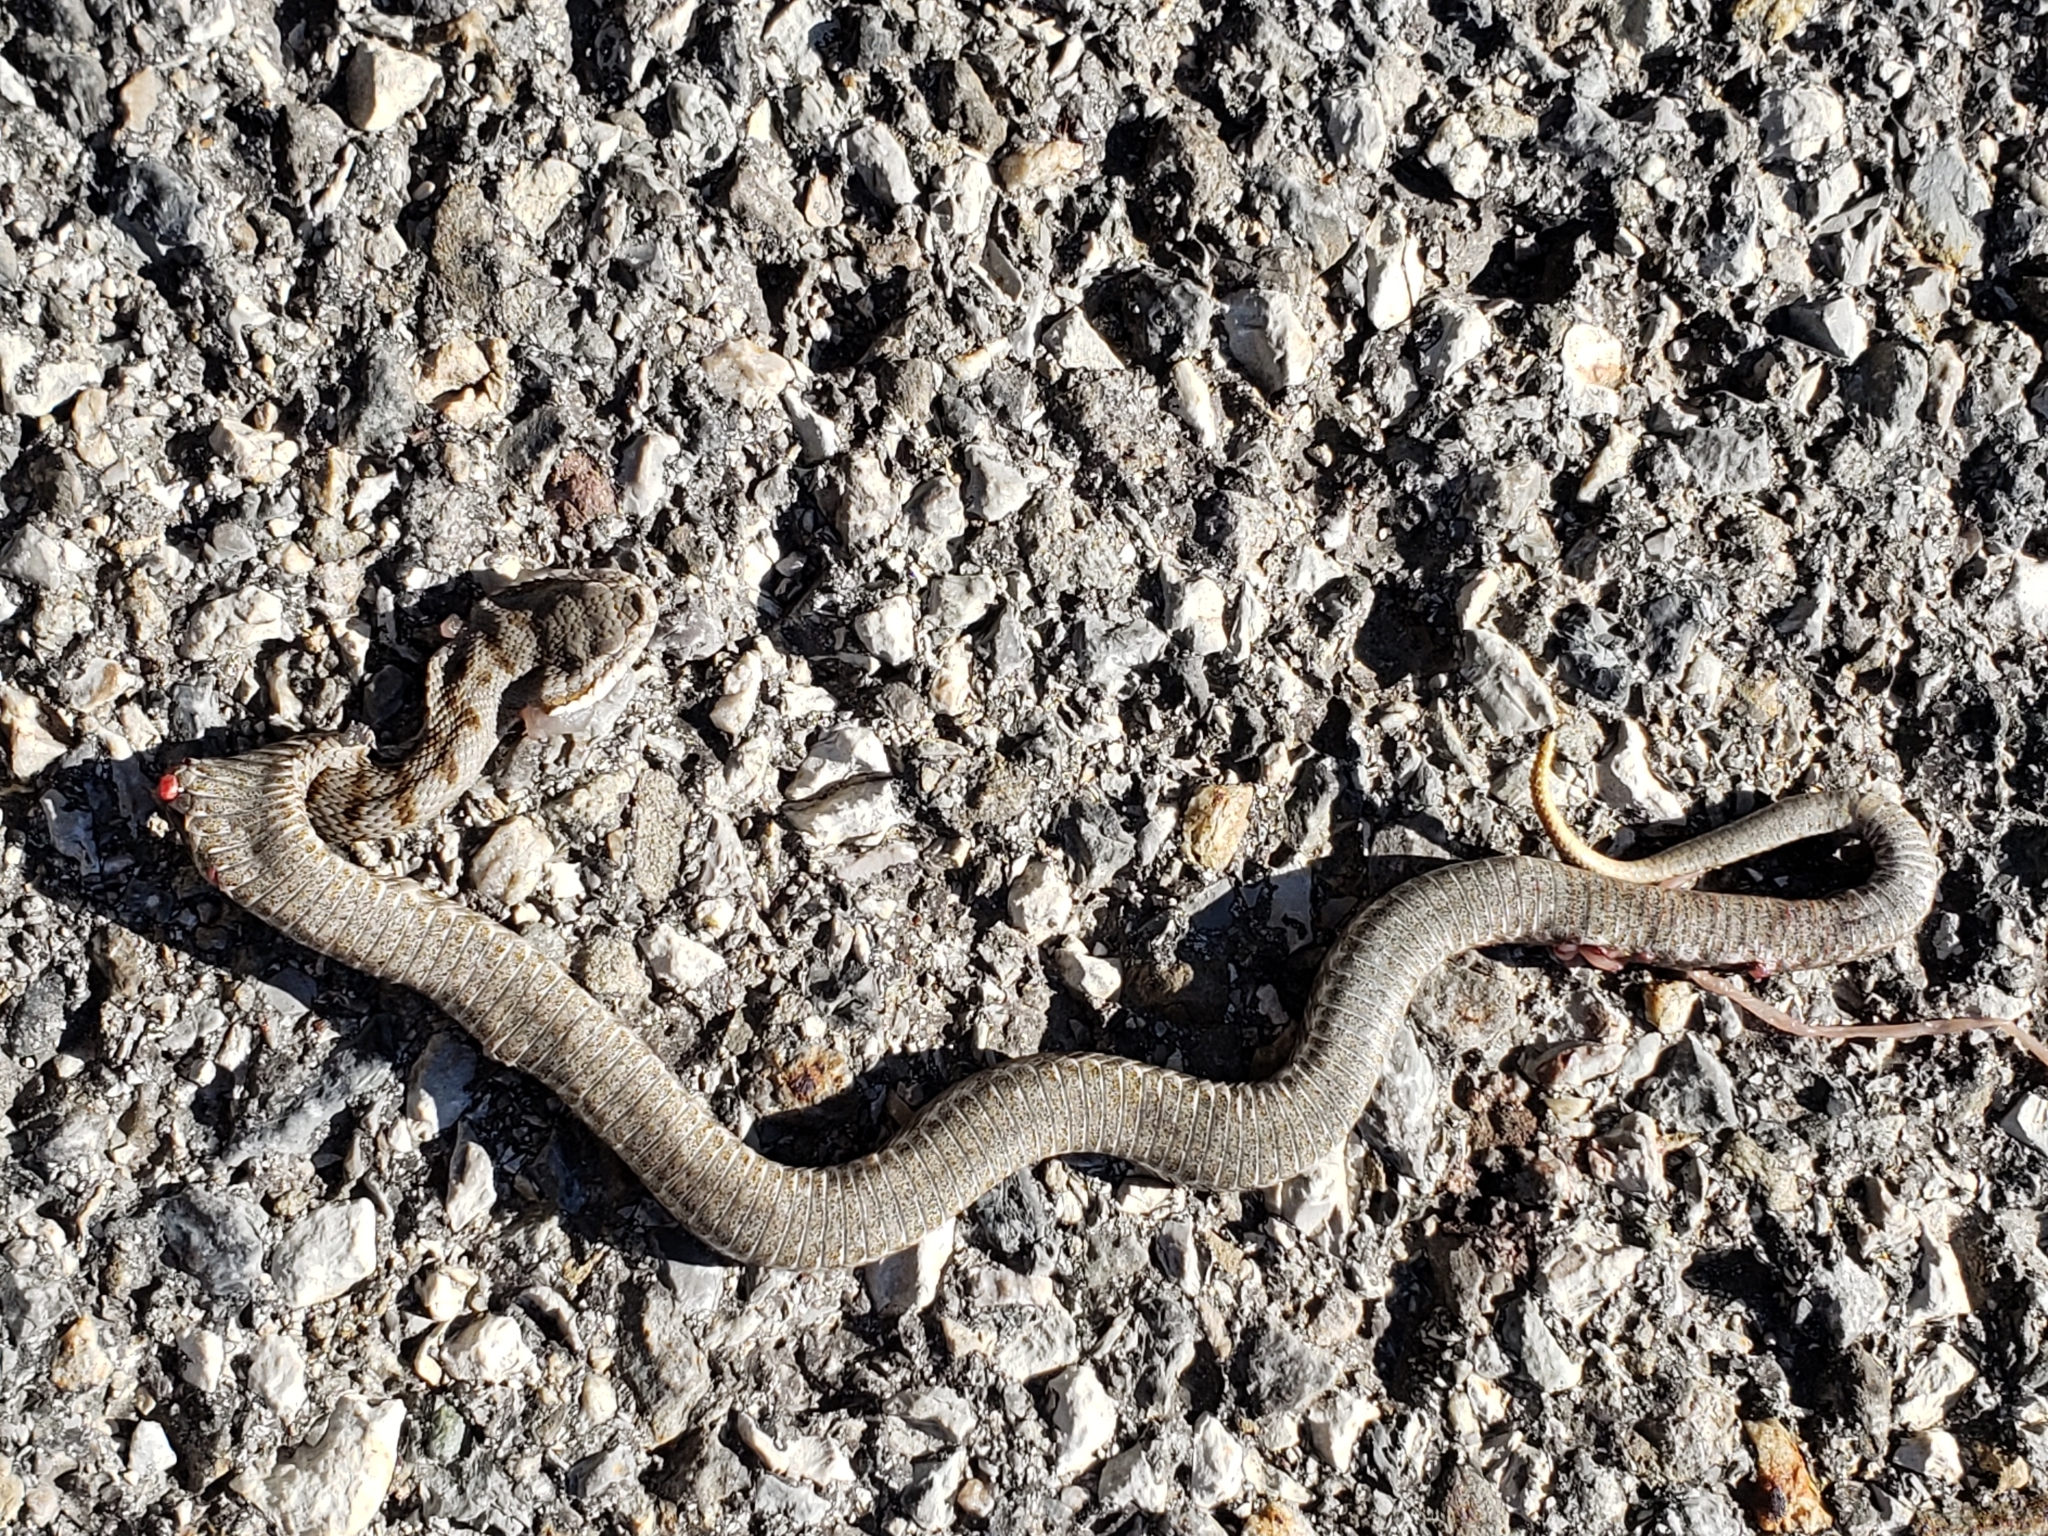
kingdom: Animalia
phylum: Chordata
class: Squamata
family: Viperidae
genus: Vipera
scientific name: Vipera aspis
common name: Asp viper
